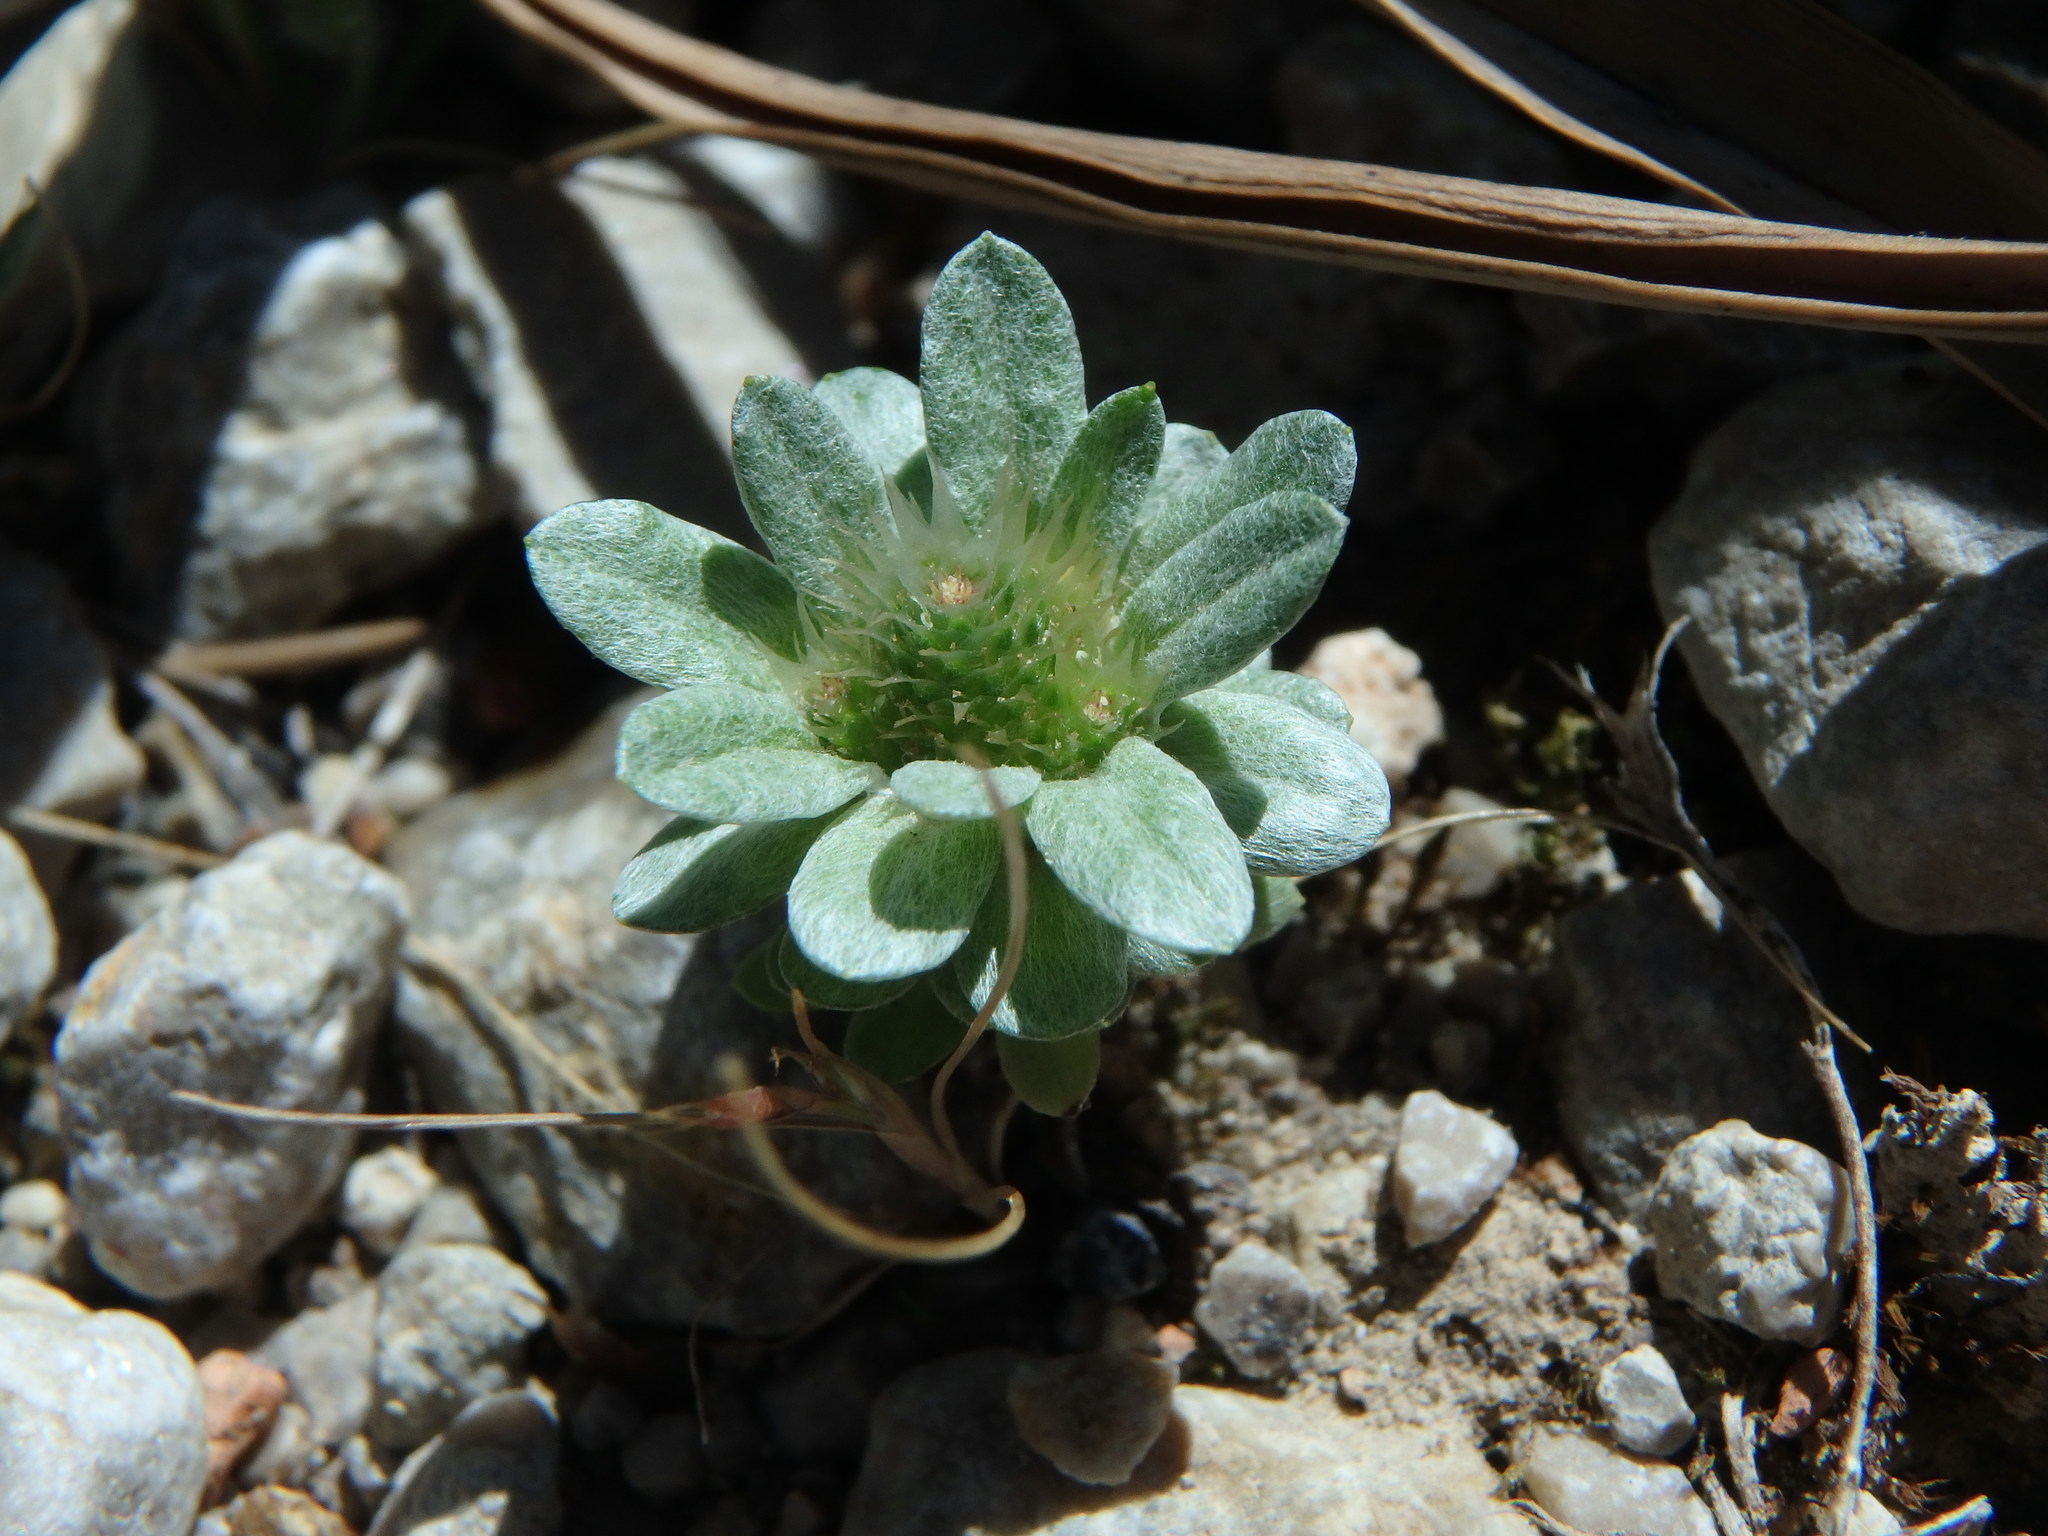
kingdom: Plantae
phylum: Tracheophyta
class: Magnoliopsida
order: Asterales
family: Asteraceae
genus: Filago
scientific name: Filago pygmaea
